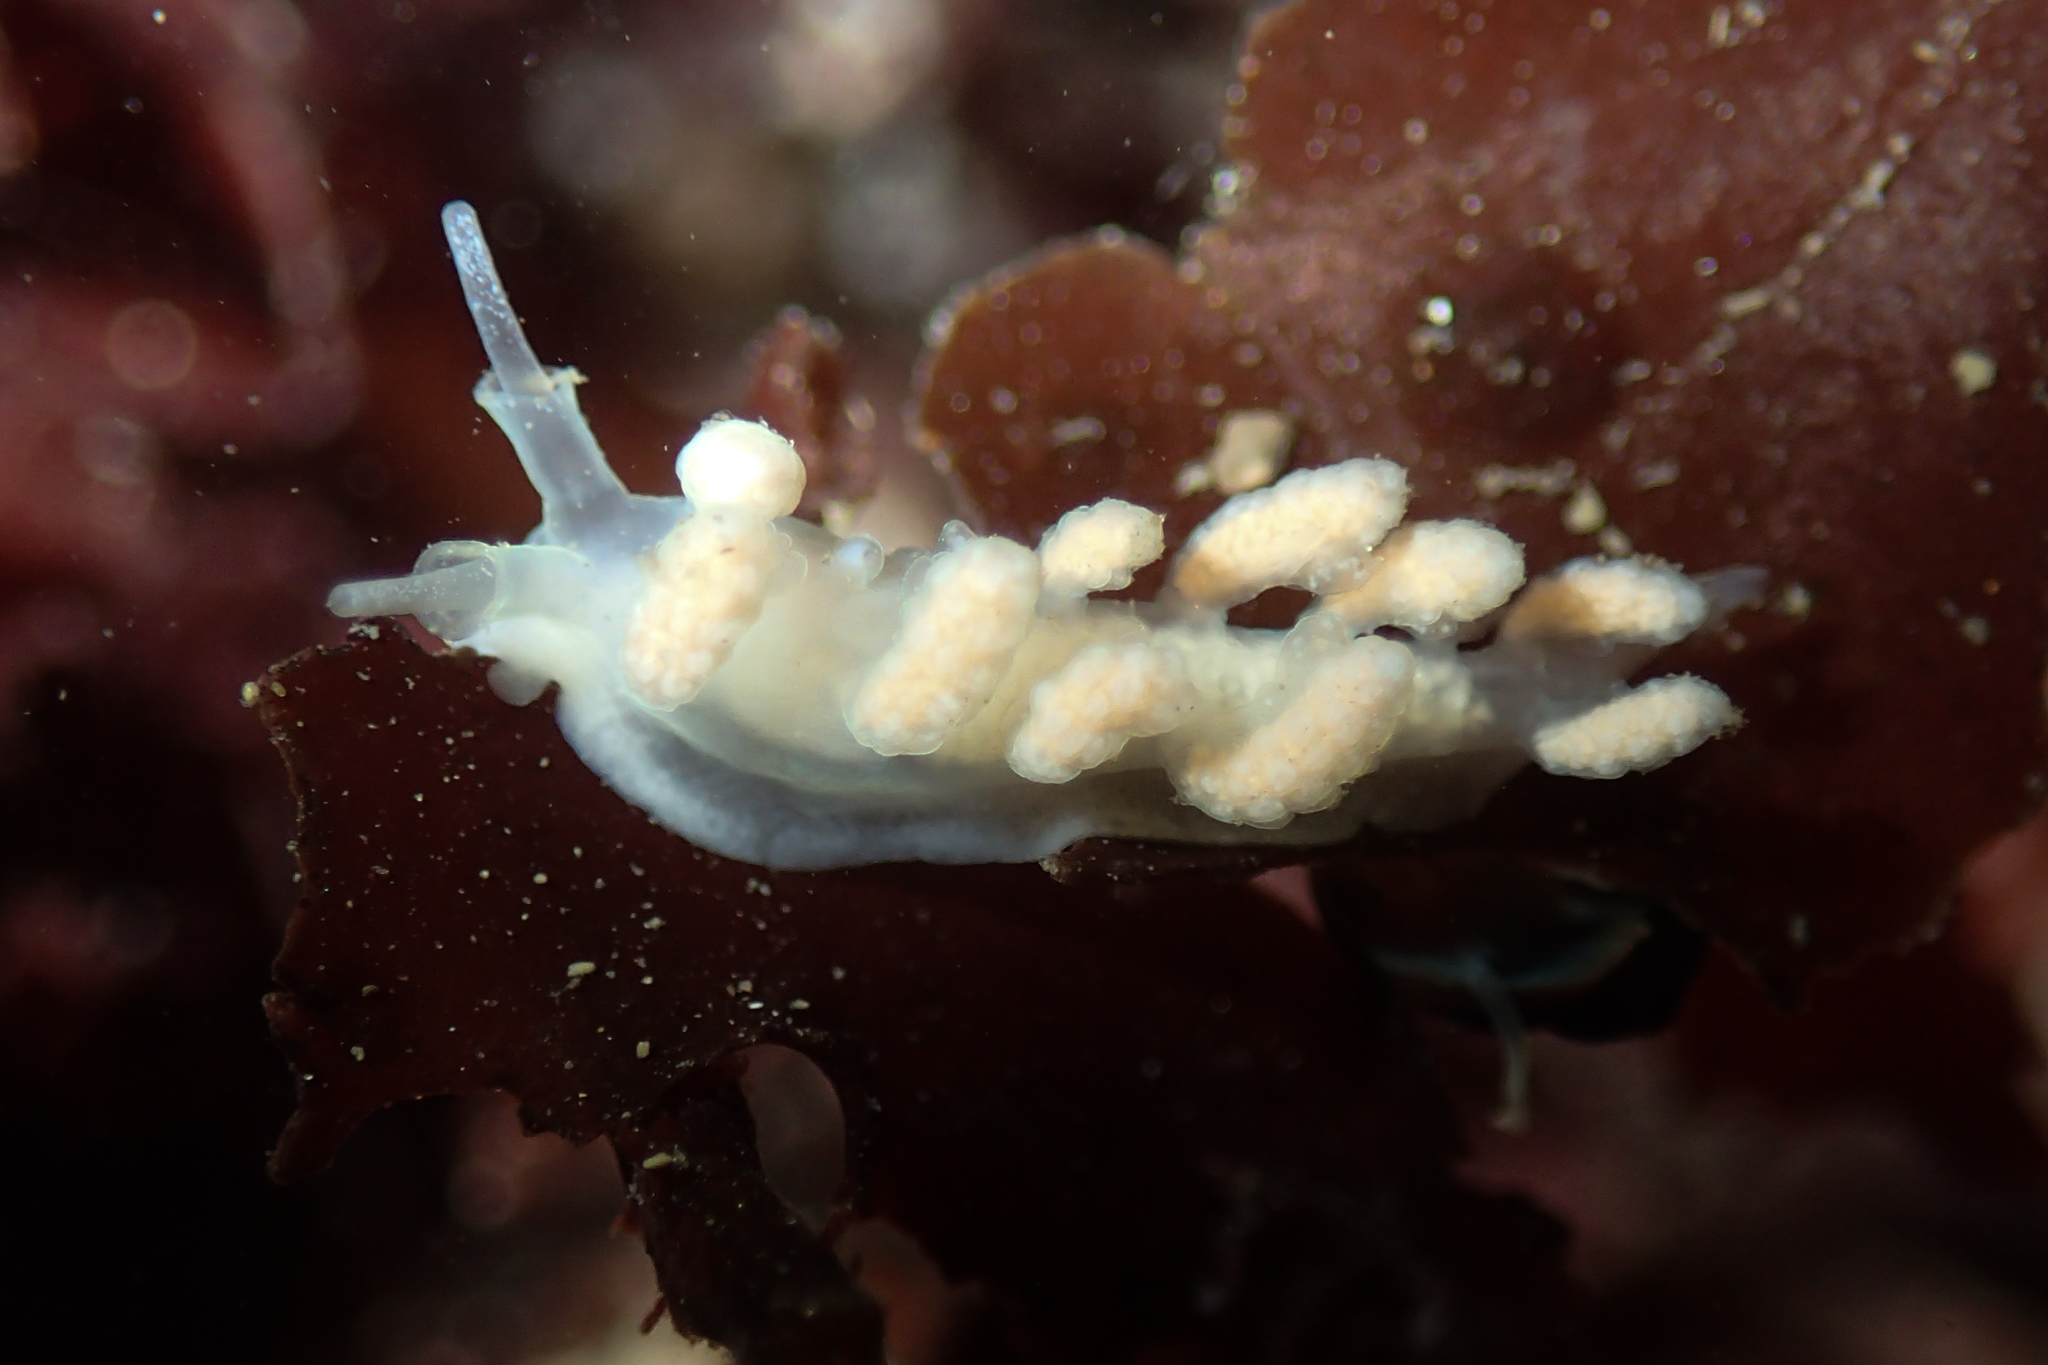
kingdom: Animalia
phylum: Mollusca
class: Gastropoda
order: Nudibranchia
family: Dotidae
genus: Doto
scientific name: Doto amyra
